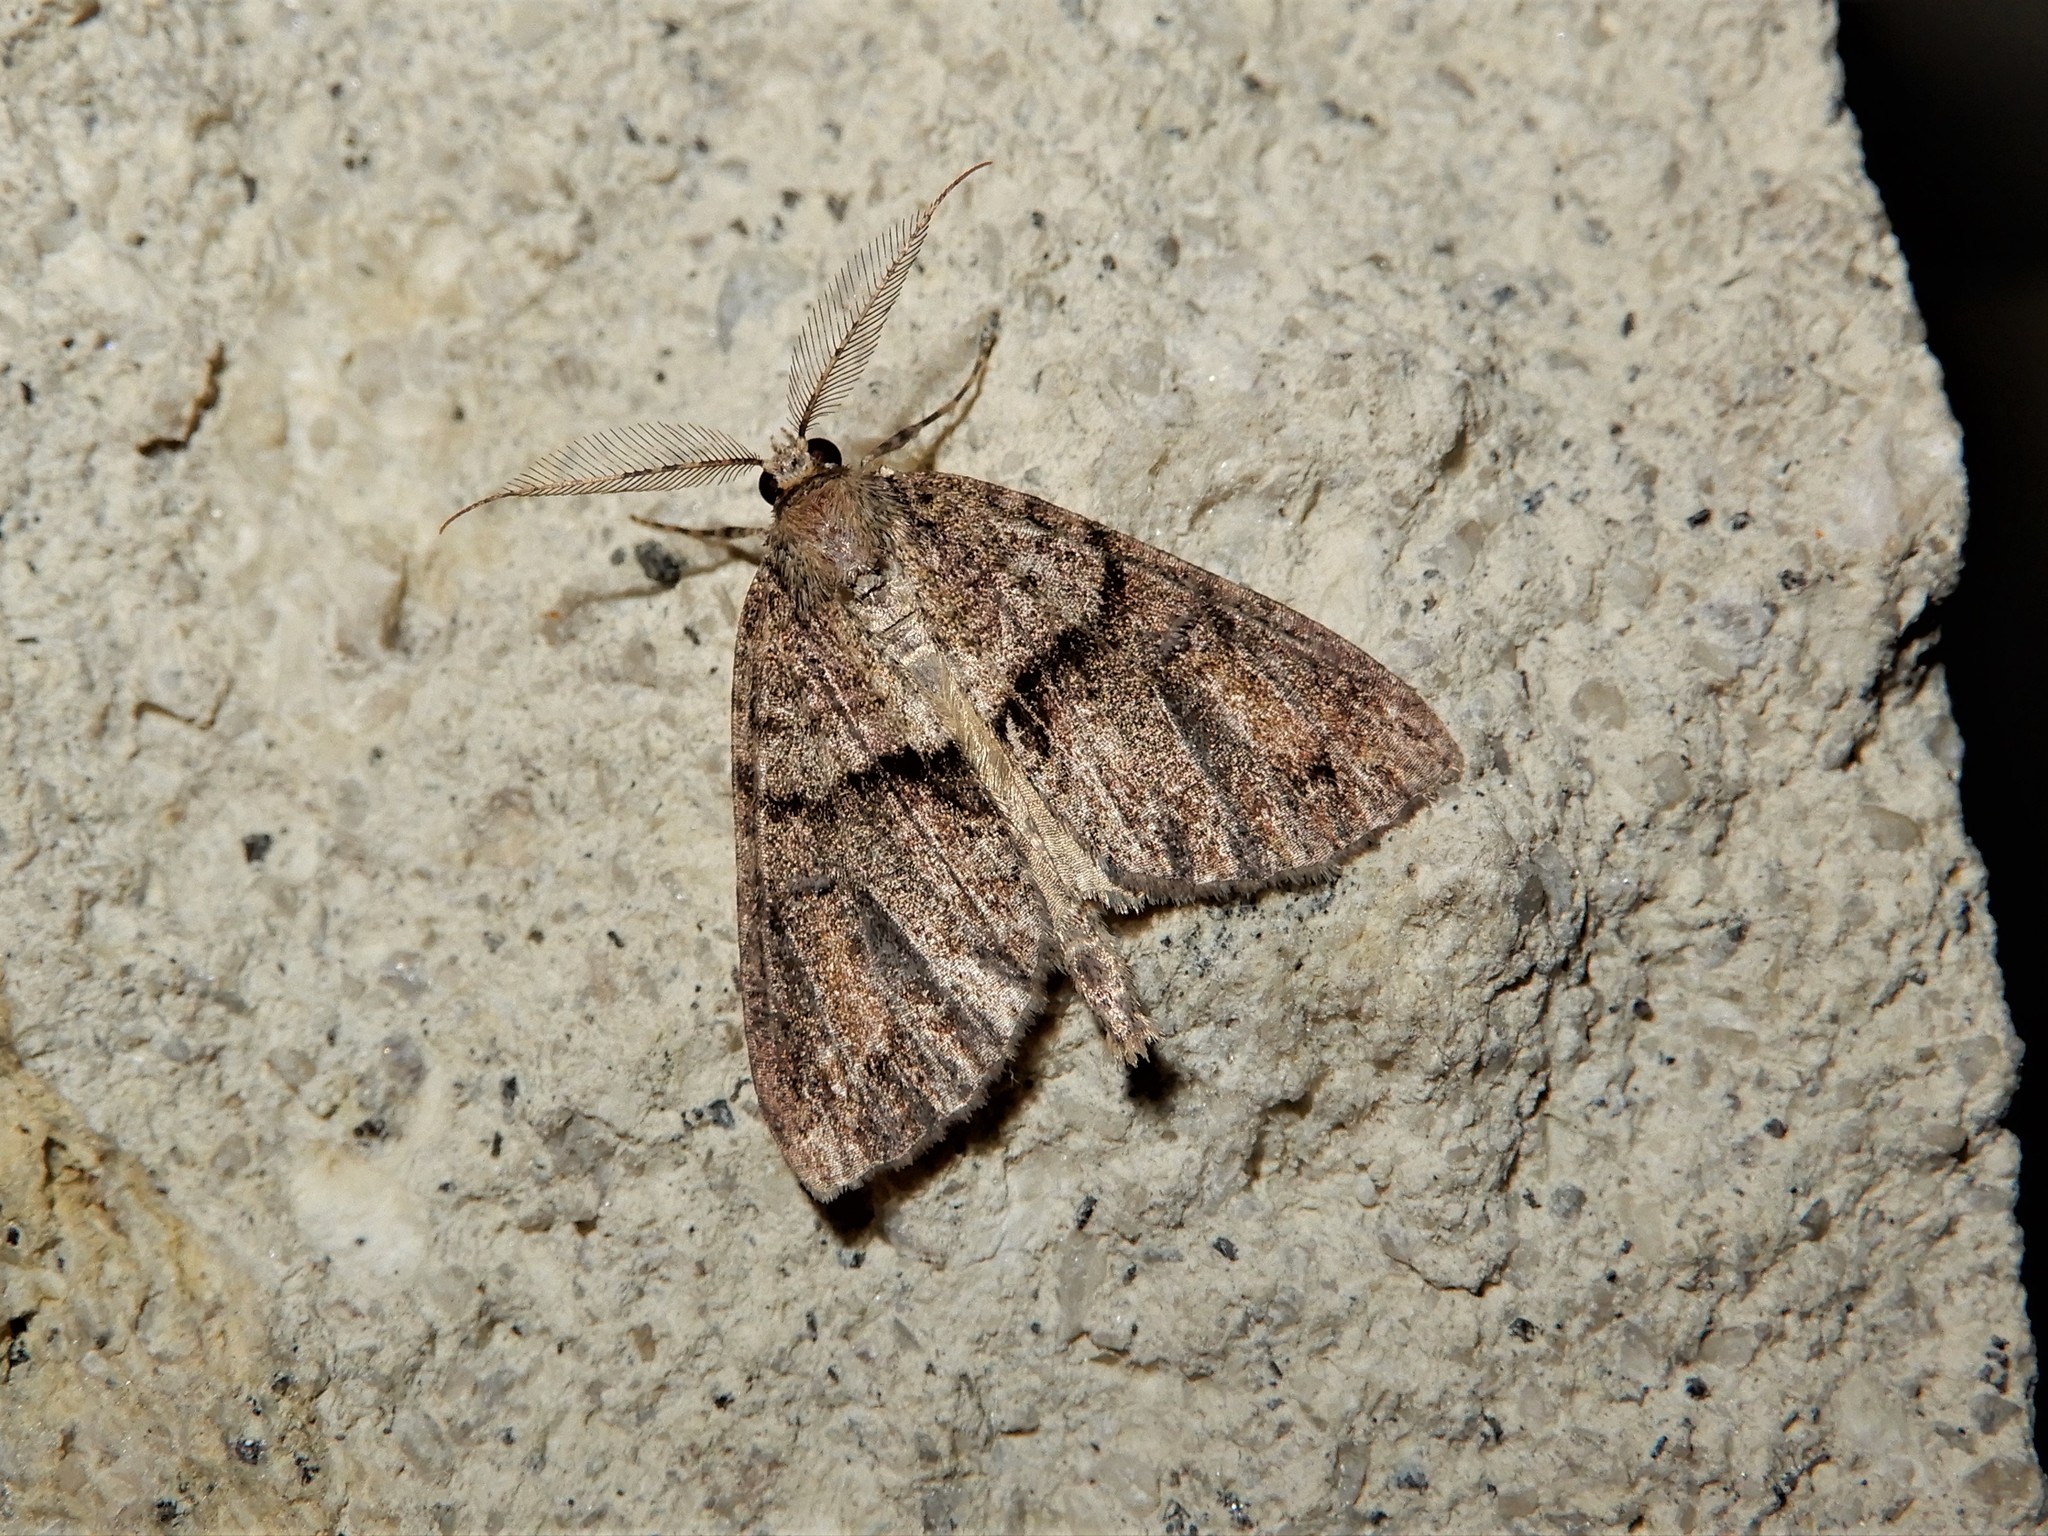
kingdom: Animalia
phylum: Arthropoda
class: Insecta
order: Lepidoptera
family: Geometridae
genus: Pseudocoremia
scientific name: Pseudocoremia suavis
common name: Common forest looper
